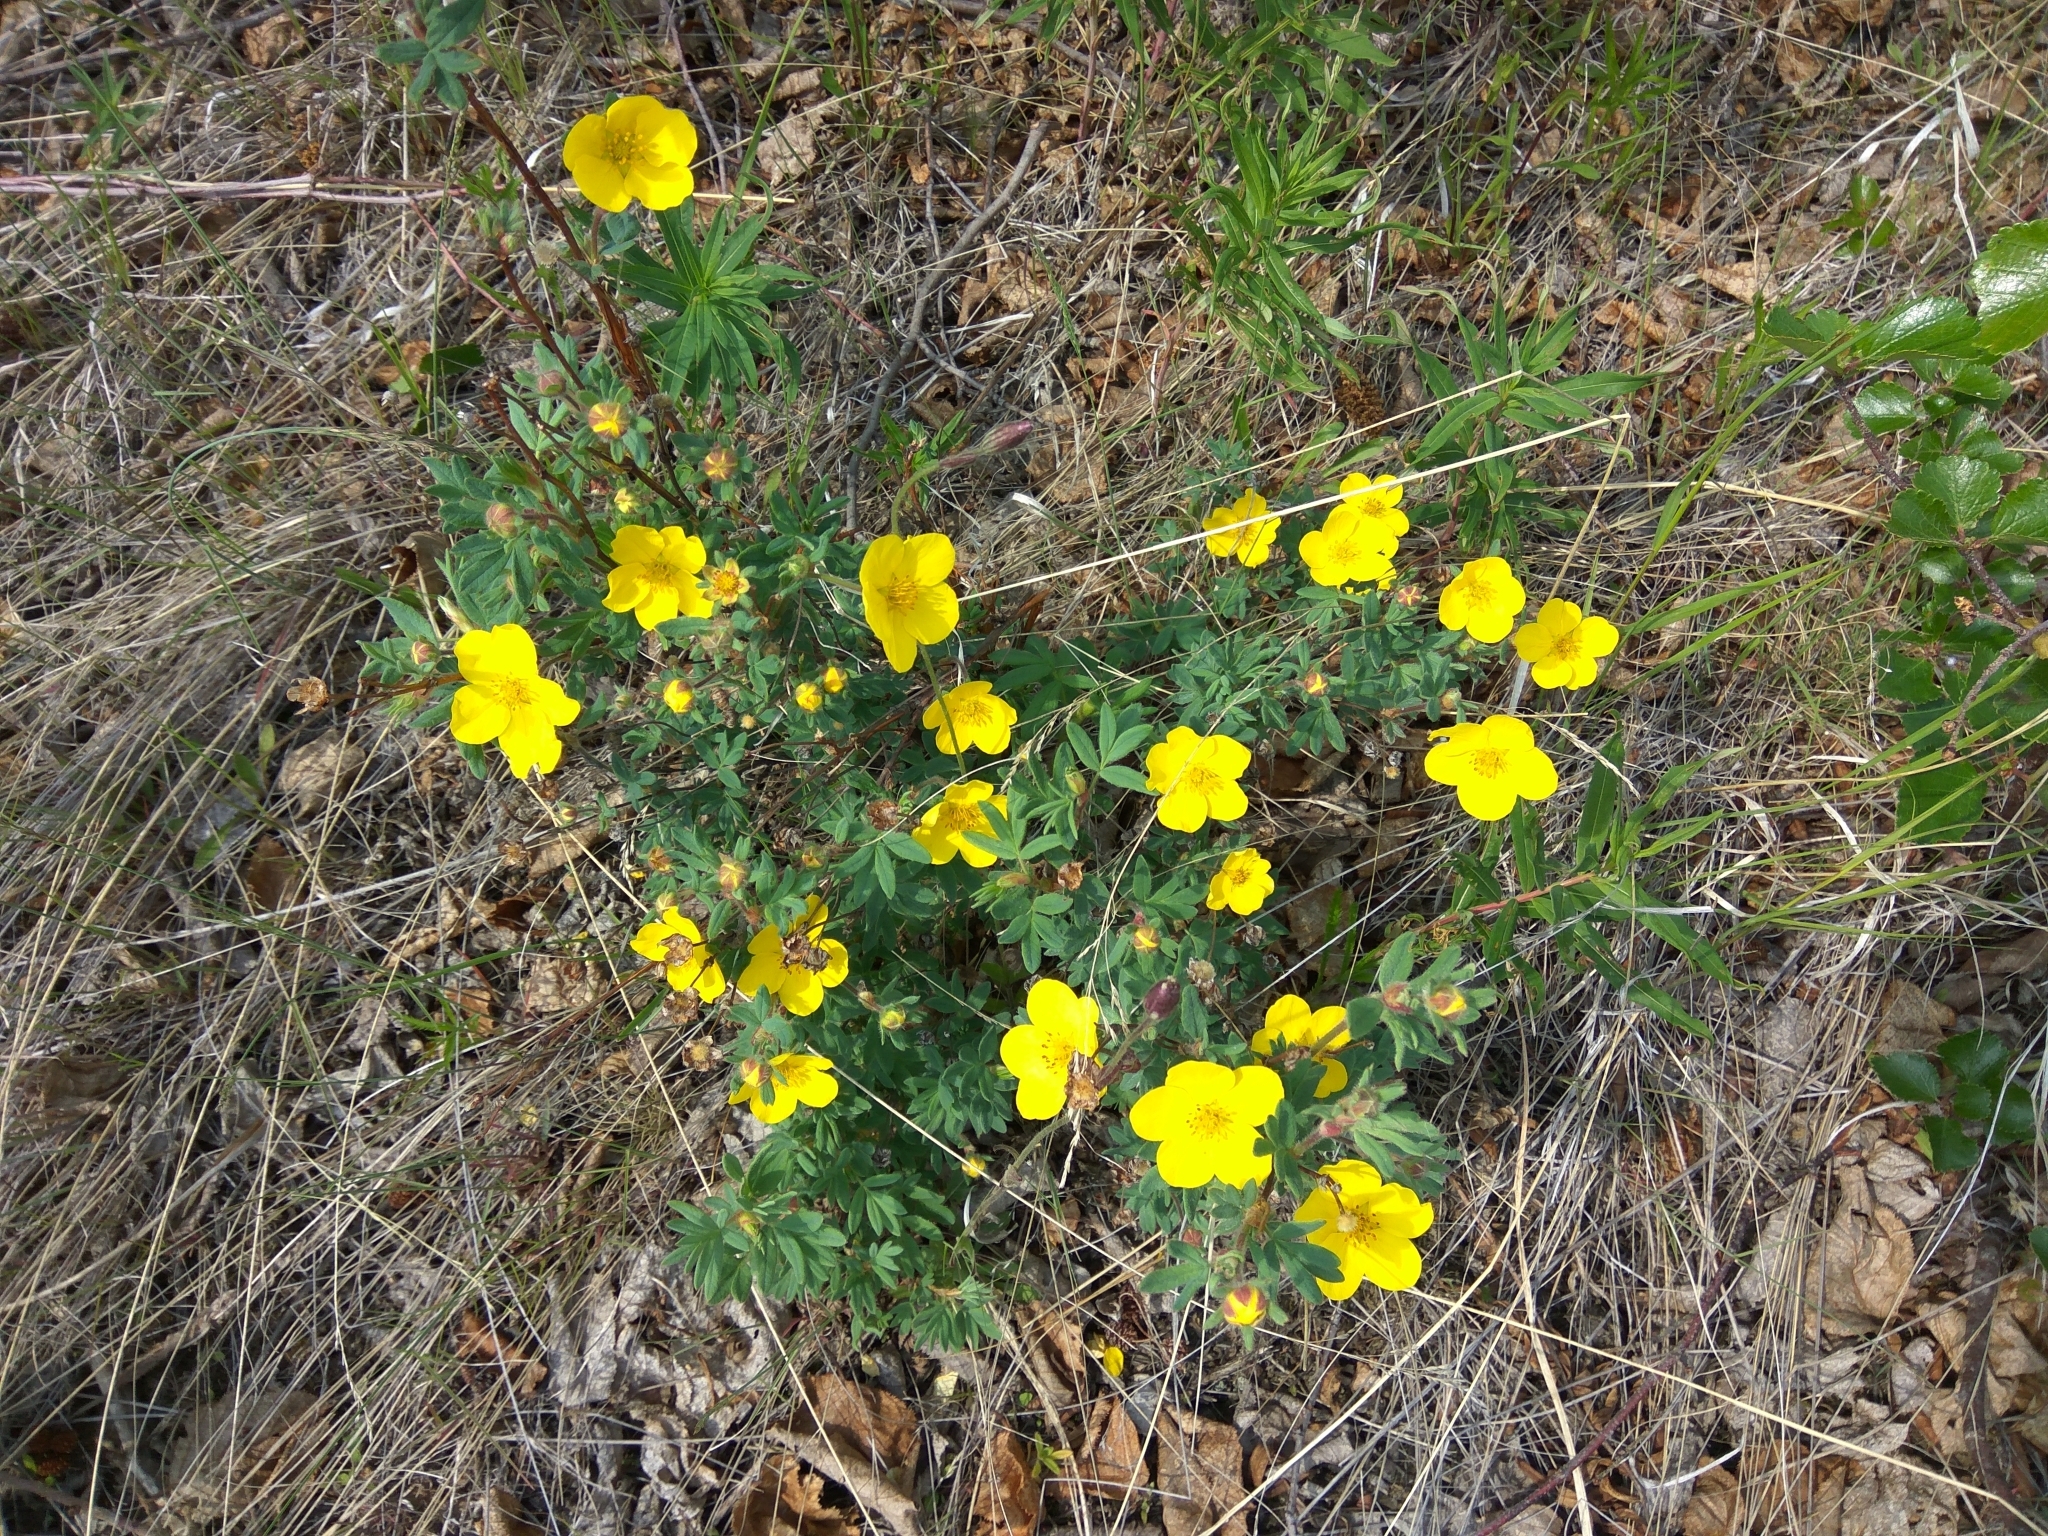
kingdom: Plantae
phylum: Tracheophyta
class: Magnoliopsida
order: Rosales
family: Rosaceae
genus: Dasiphora
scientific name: Dasiphora fruticosa
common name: Shrubby cinquefoil
